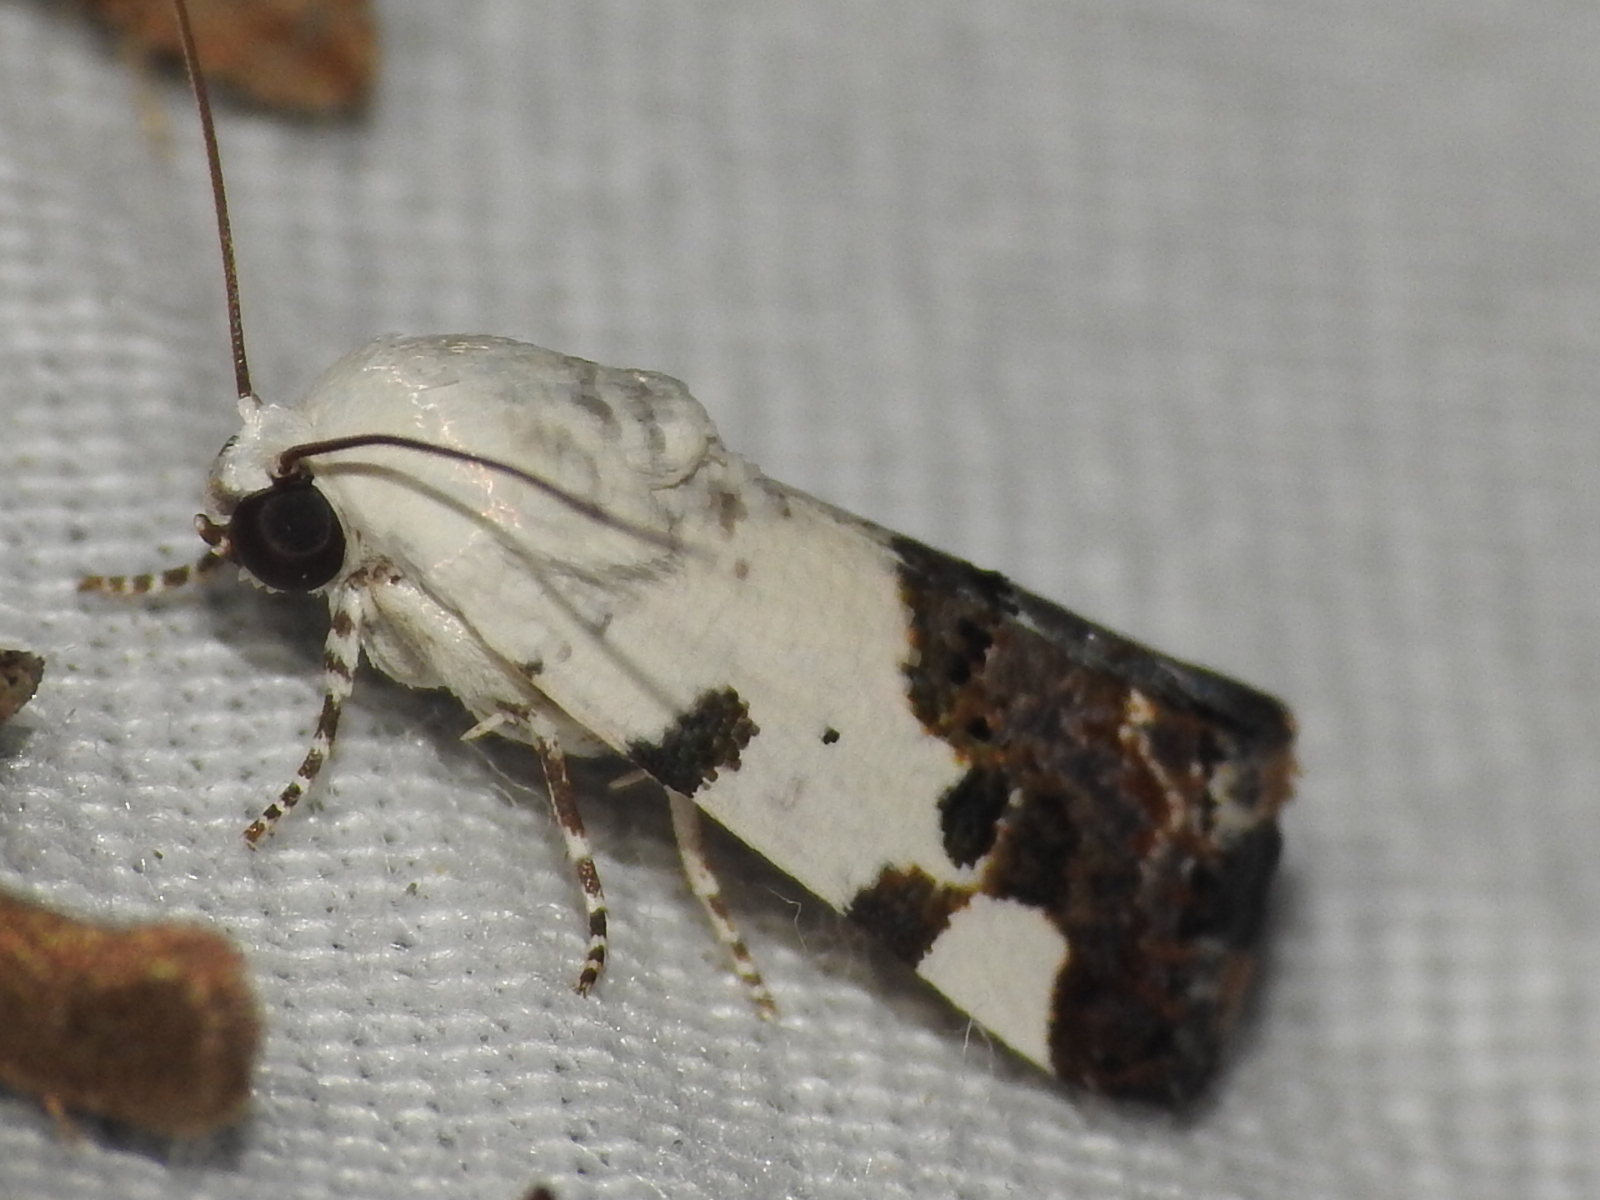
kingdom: Animalia
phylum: Arthropoda
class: Insecta
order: Lepidoptera
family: Noctuidae
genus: Acontia
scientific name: Acontia aprica
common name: Nun
